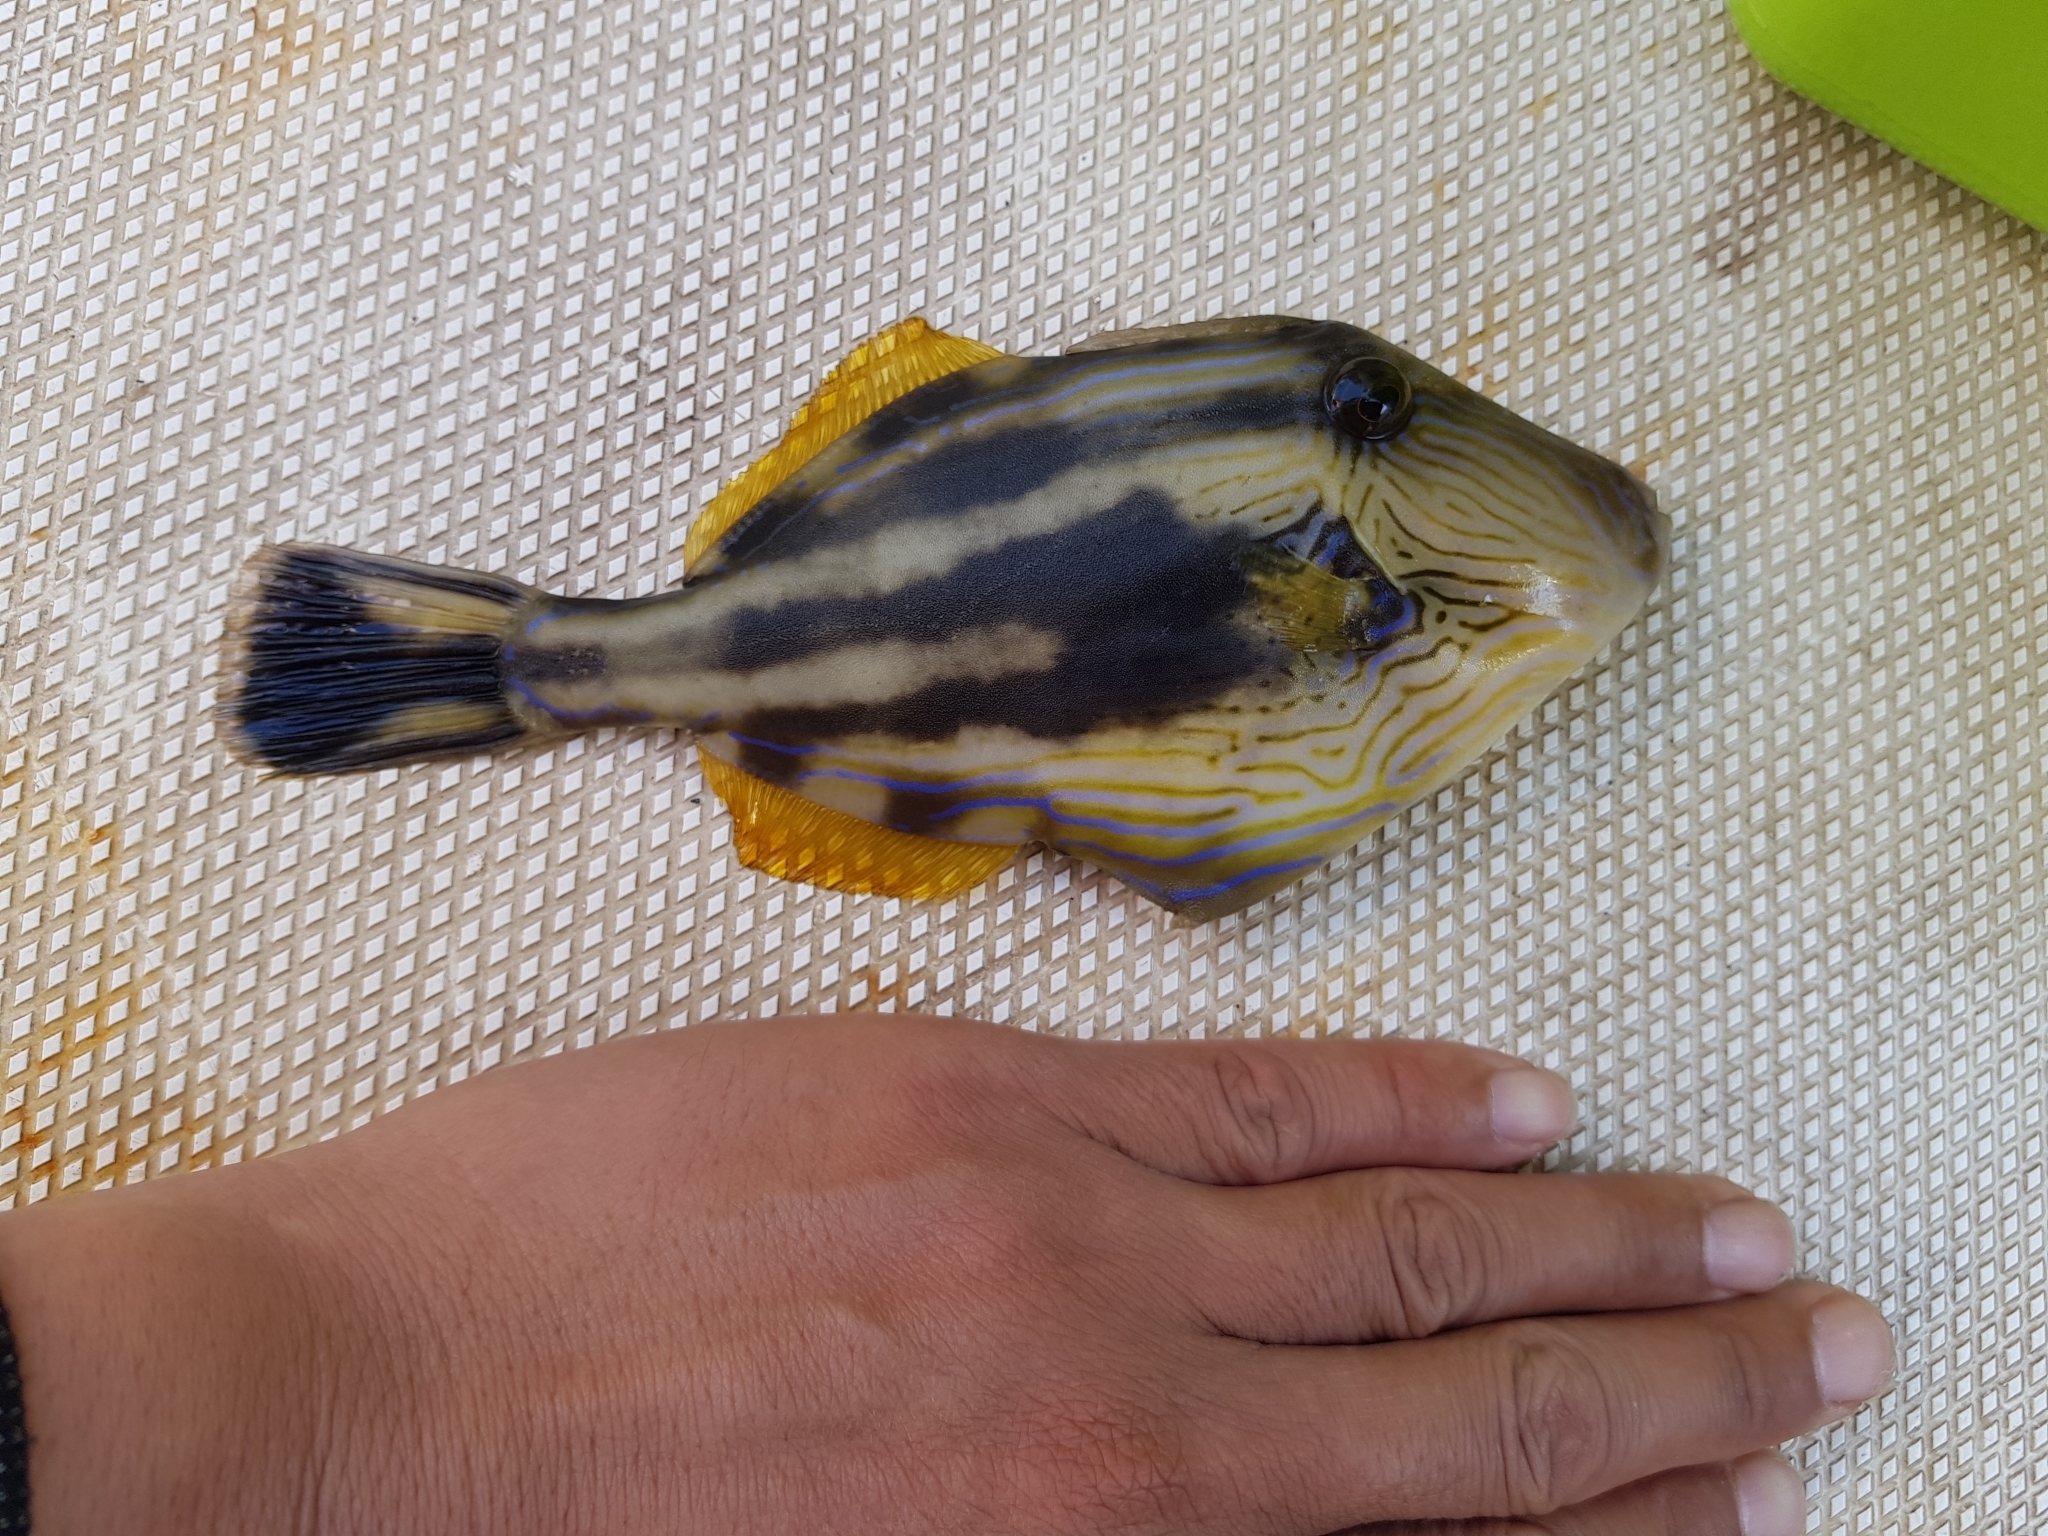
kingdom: Animalia
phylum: Chordata
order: Tetraodontiformes
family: Monacanthidae
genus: Meuschenia
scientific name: Meuschenia freycineti
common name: Freycinet's leatherjacket
